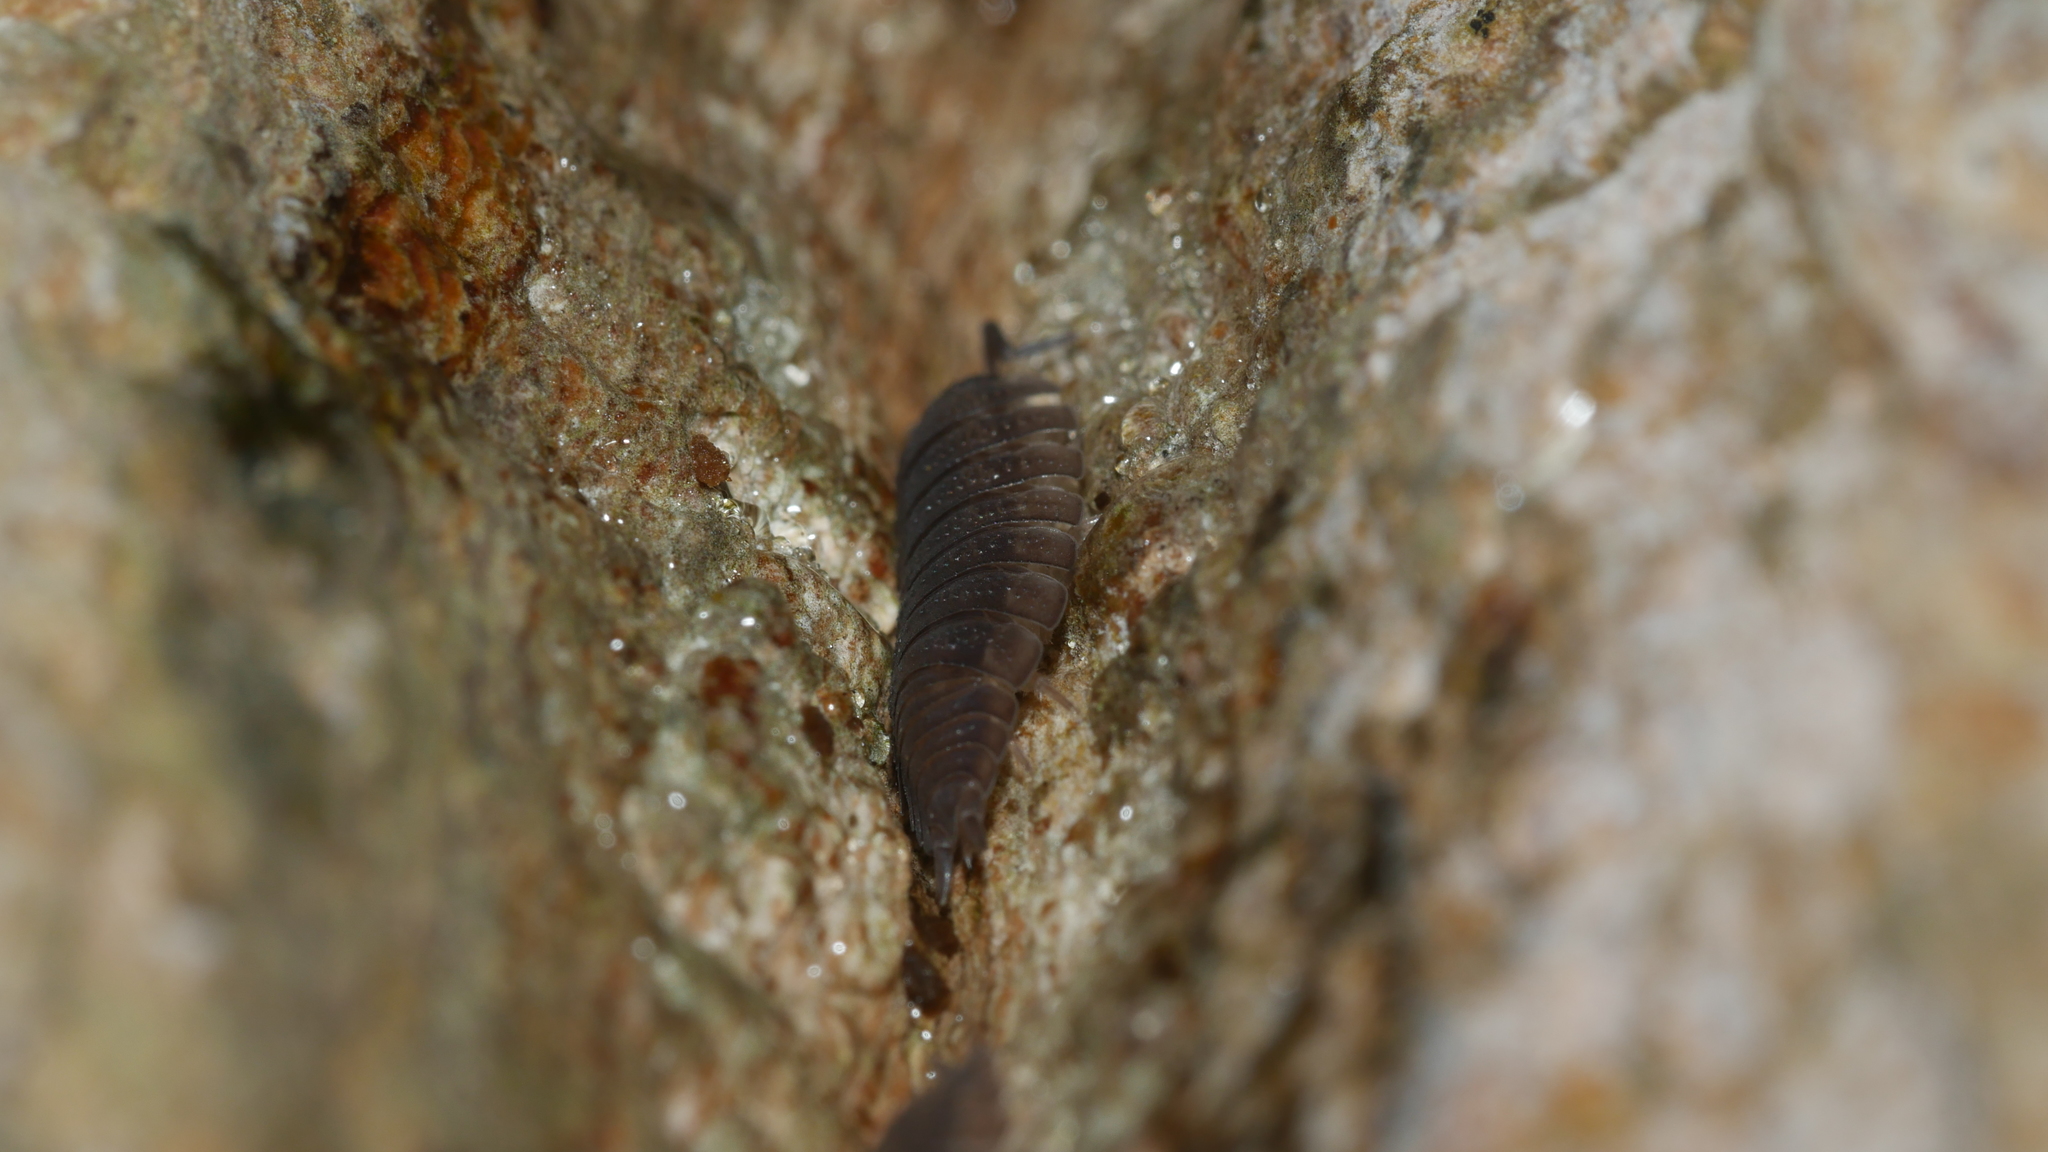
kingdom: Animalia
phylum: Arthropoda
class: Malacostraca
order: Isopoda
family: Porcellionidae
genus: Porcellio
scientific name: Porcellio scaber
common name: Common rough woodlouse
